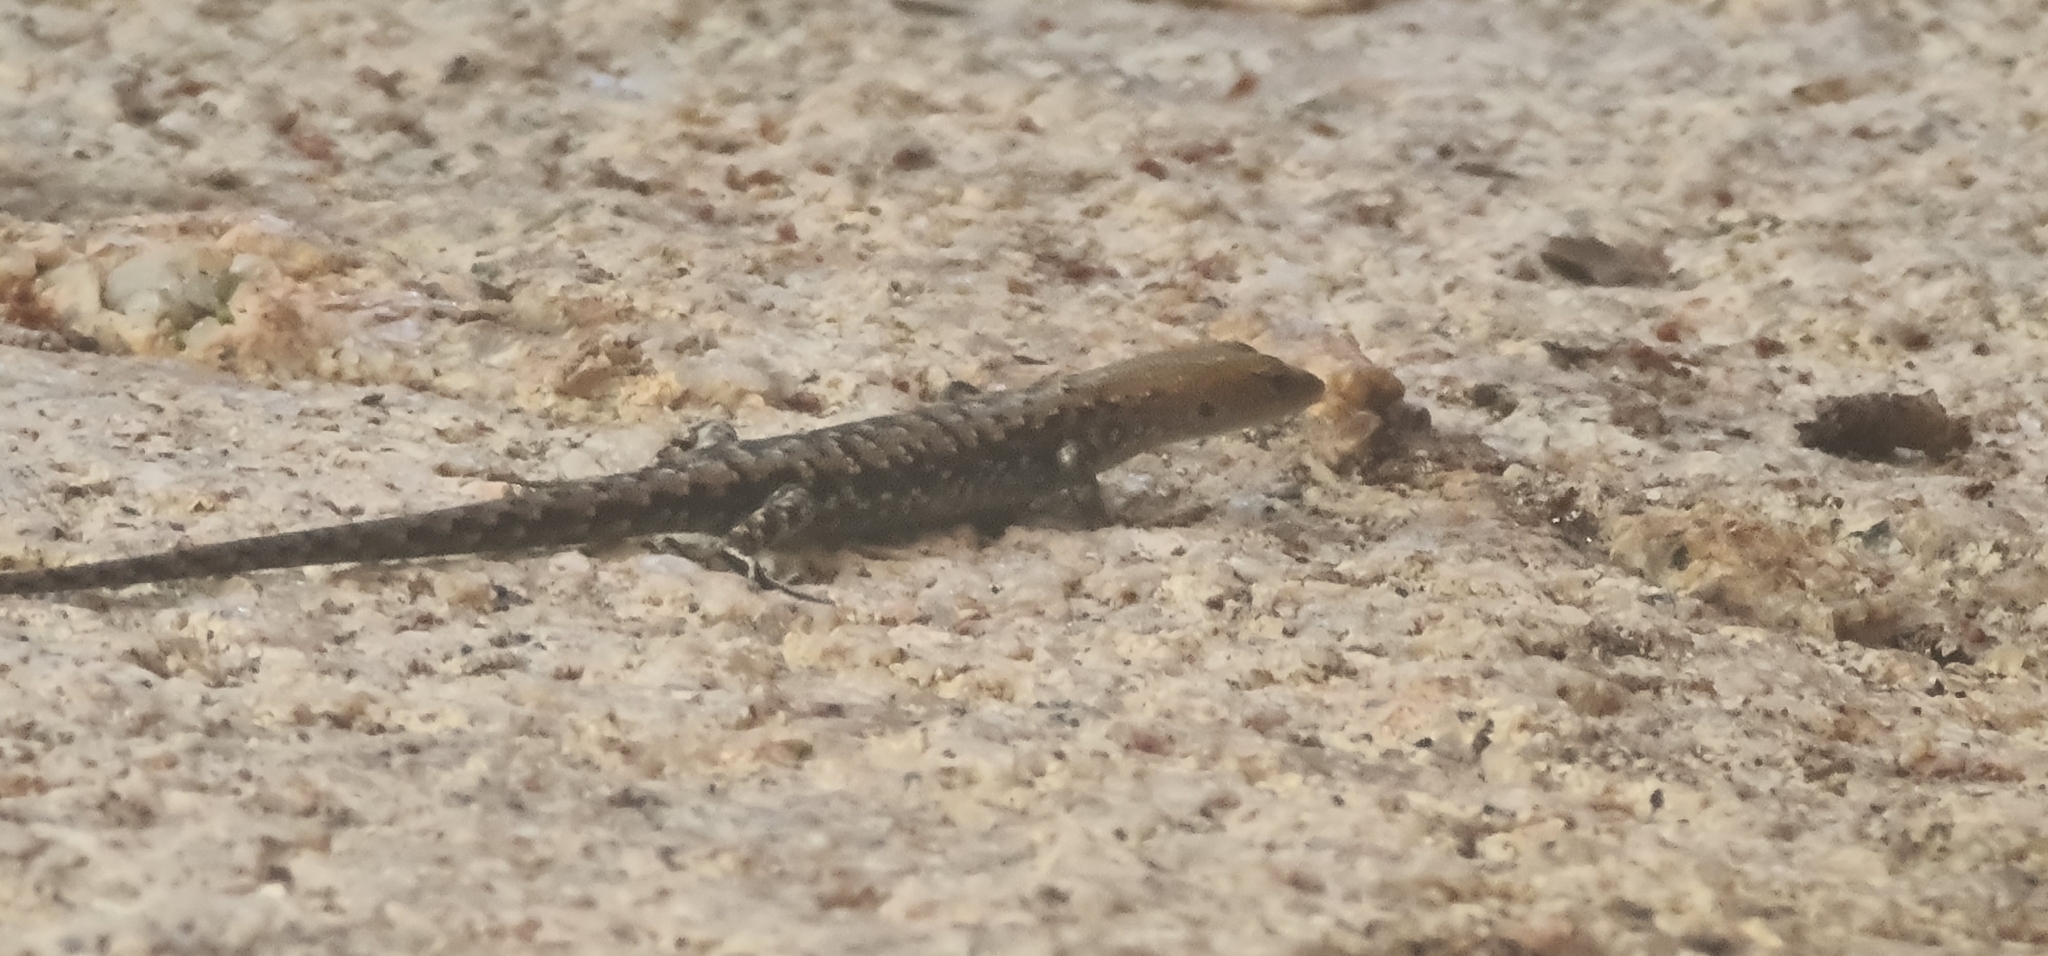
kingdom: Animalia
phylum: Chordata
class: Squamata
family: Scincidae
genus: Lampropholis
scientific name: Lampropholis mirabilis
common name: Saxicoline sunskink
